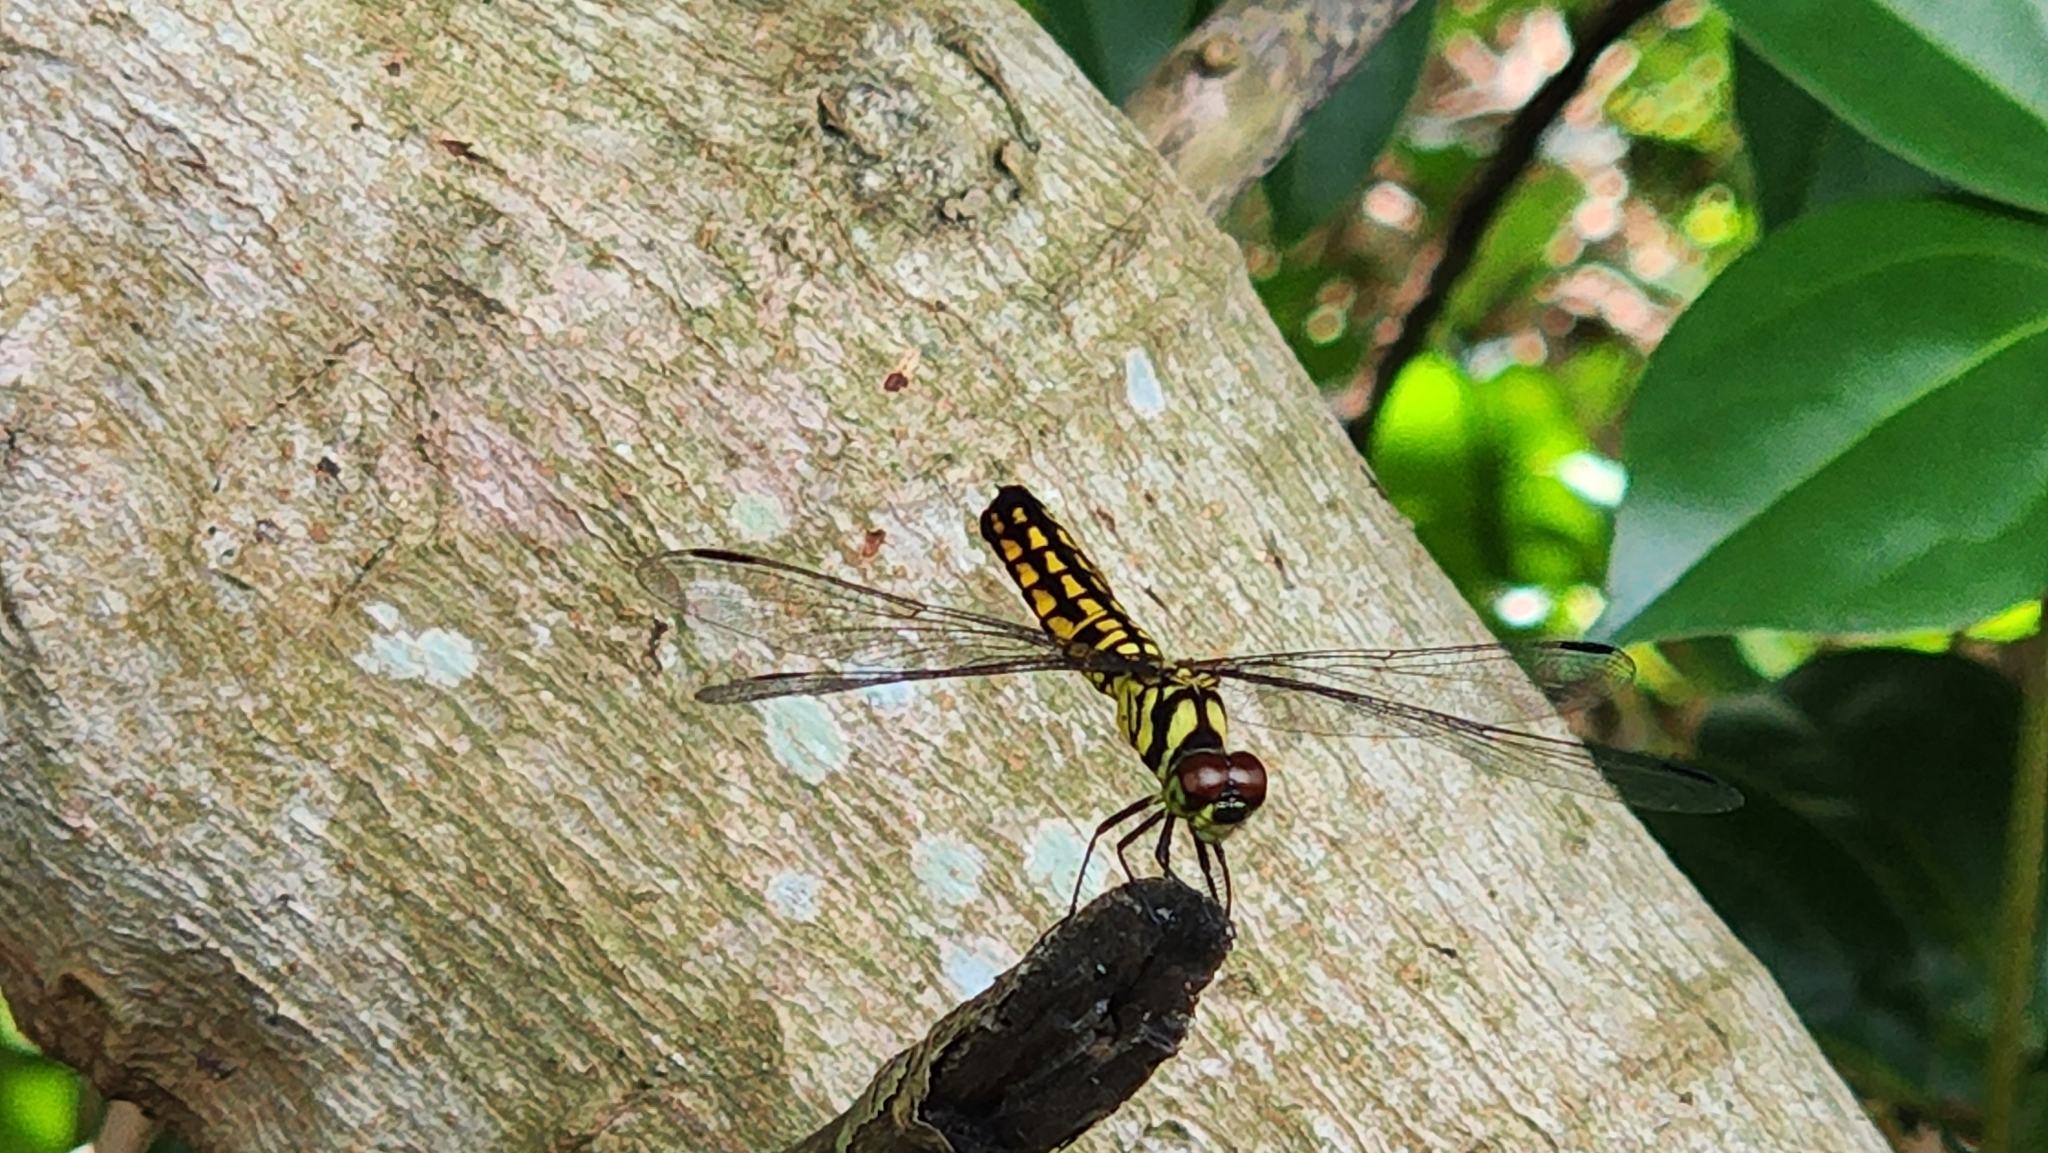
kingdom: Animalia
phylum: Arthropoda
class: Insecta
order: Odonata
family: Libellulidae
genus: Lyriothemis
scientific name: Lyriothemis elegantissima
